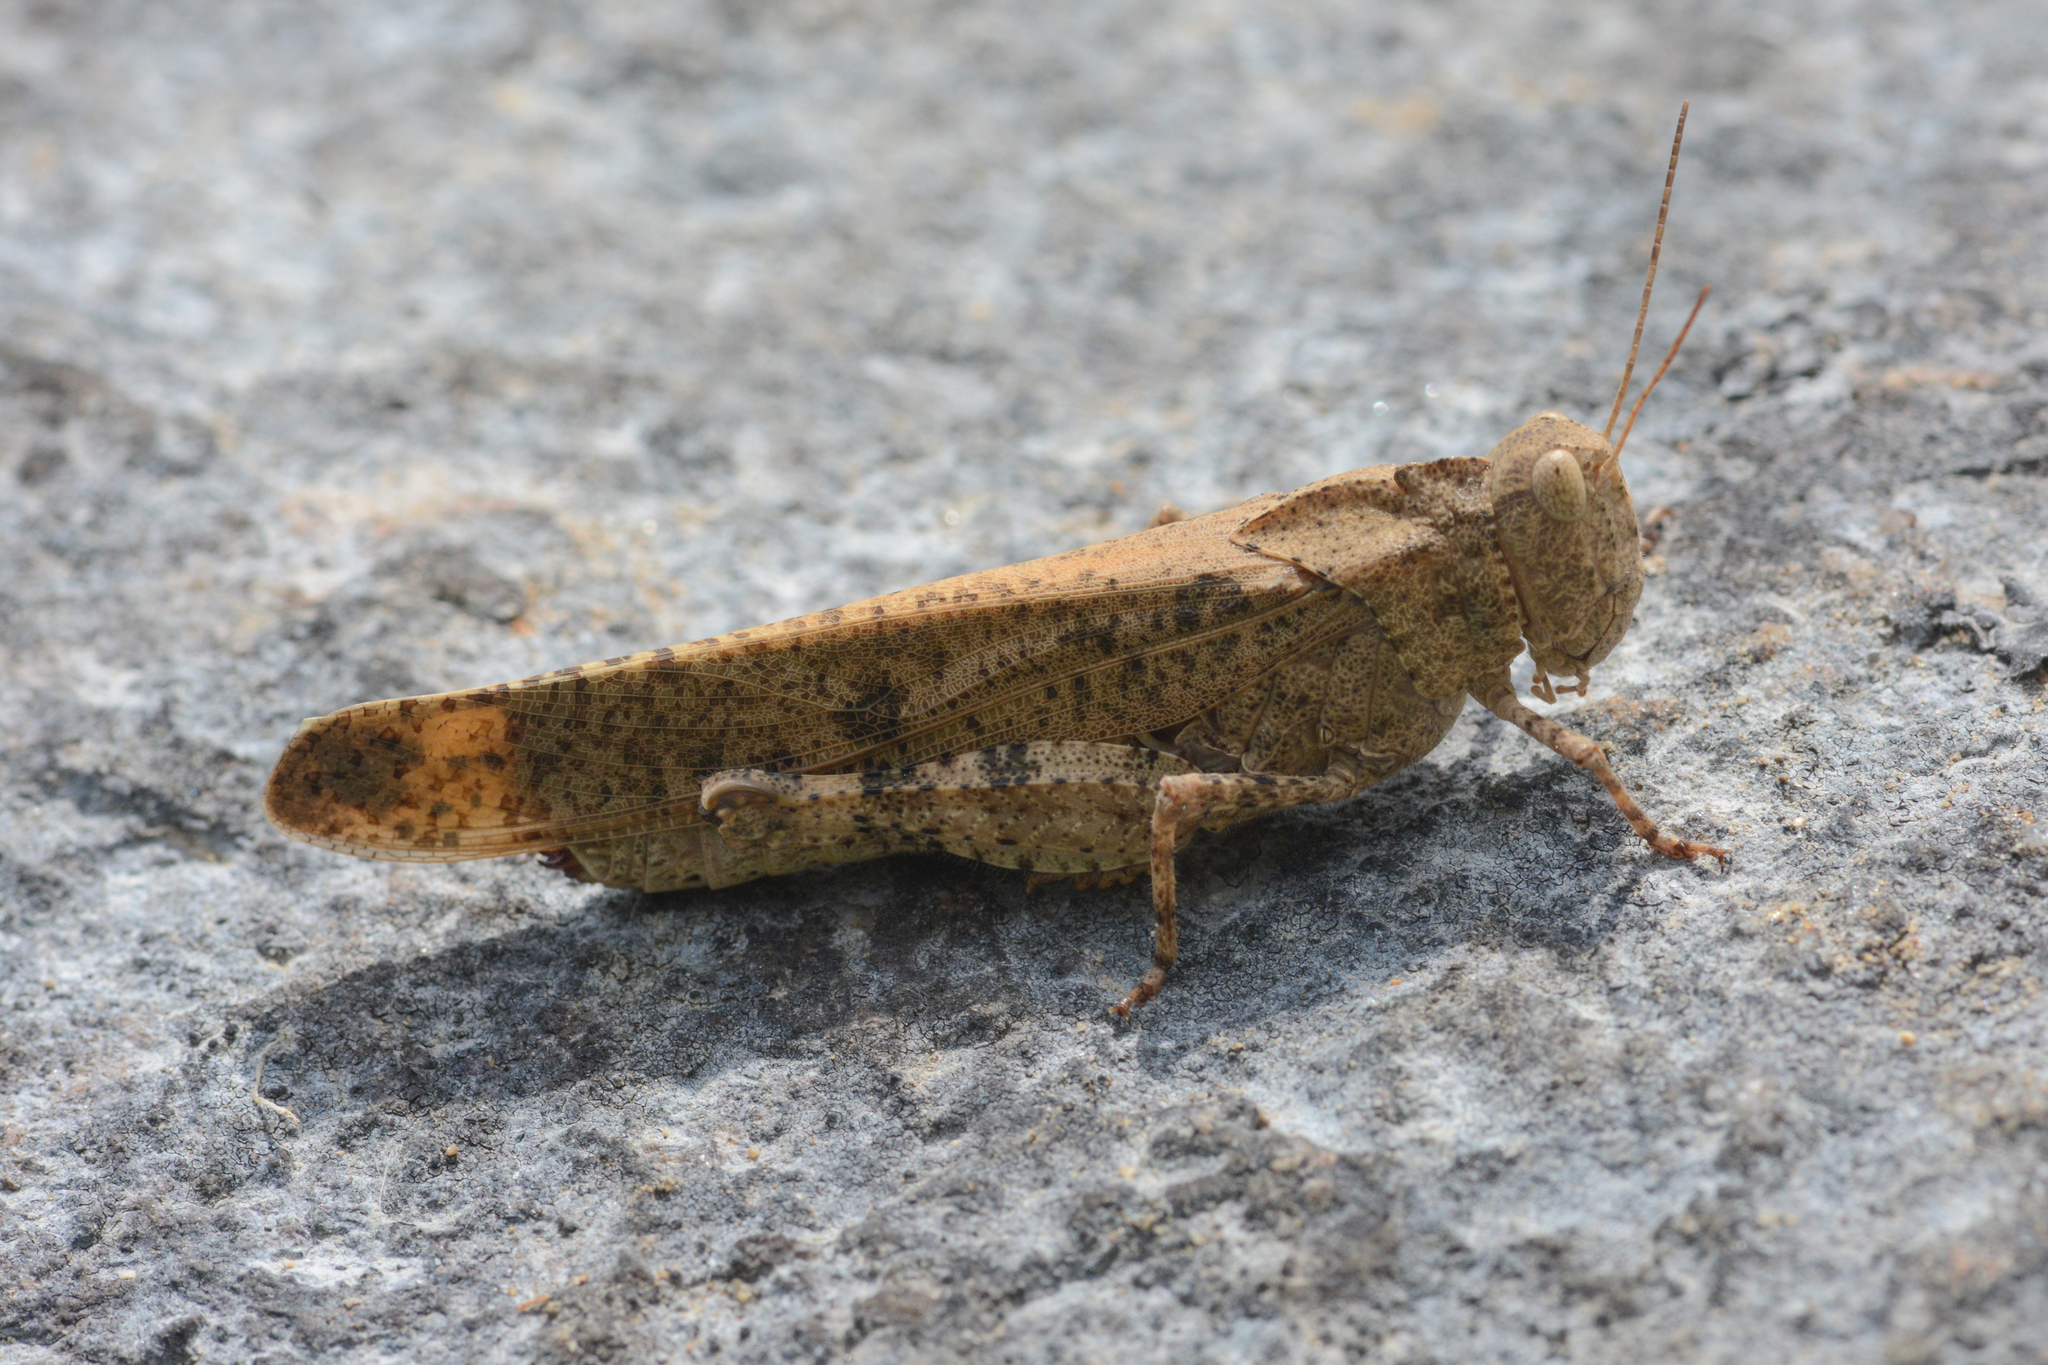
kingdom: Animalia
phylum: Arthropoda
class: Insecta
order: Orthoptera
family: Acrididae
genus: Dissosteira
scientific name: Dissosteira carolina
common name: Carolina grasshopper
